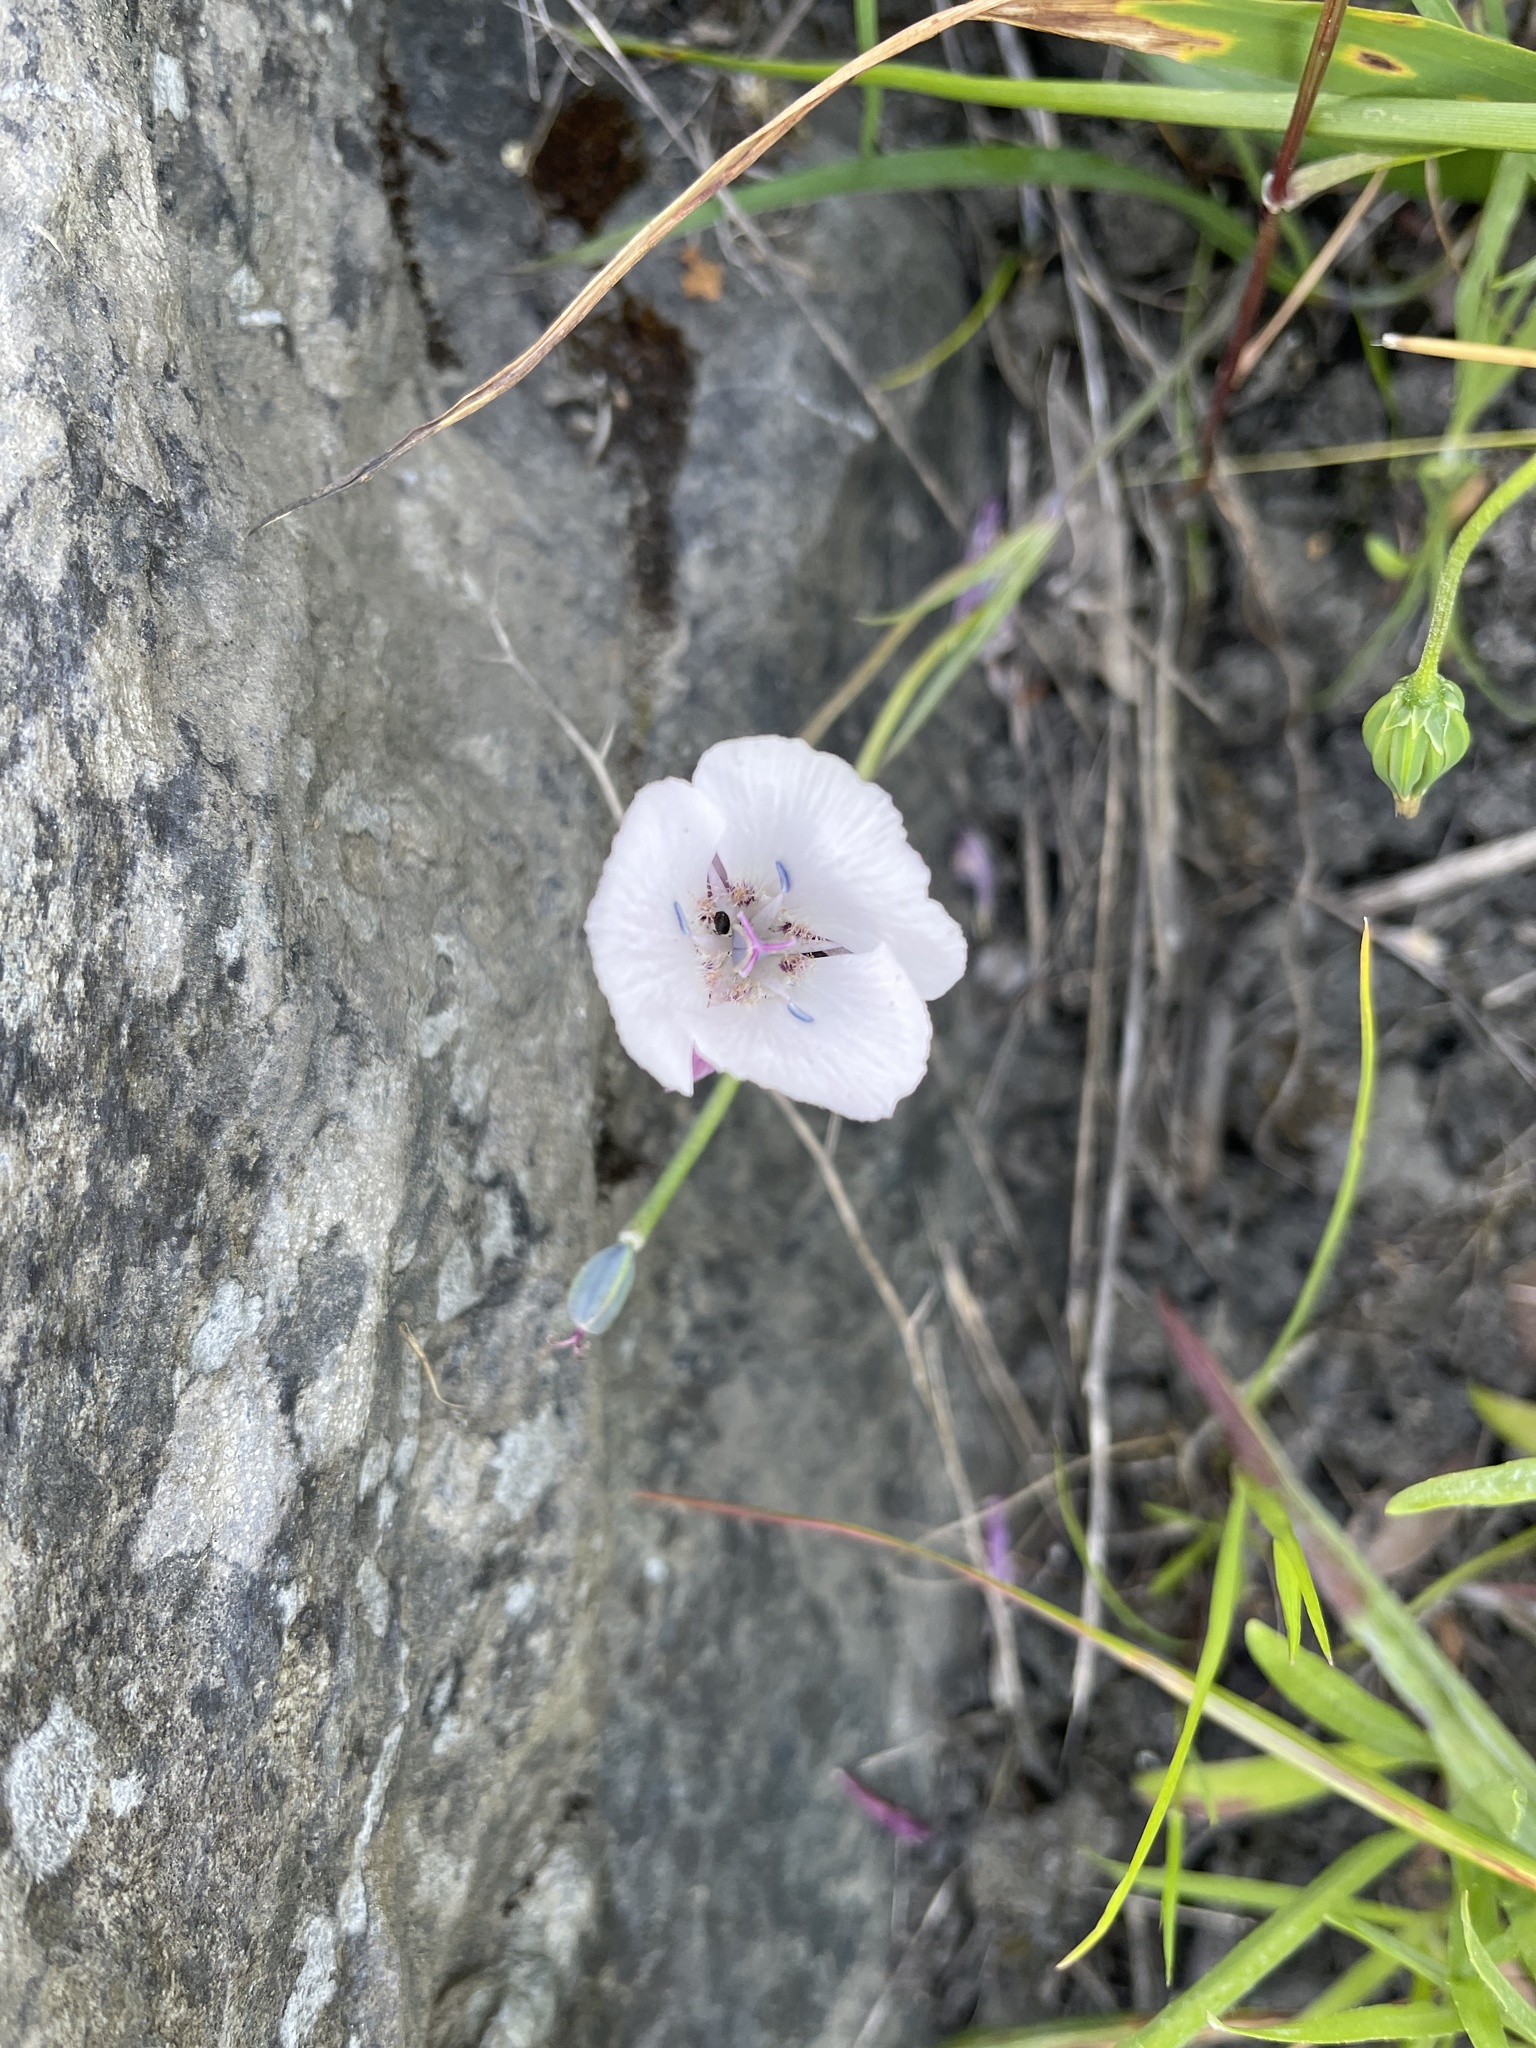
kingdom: Plantae
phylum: Tracheophyta
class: Liliopsida
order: Liliales
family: Liliaceae
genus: Calochortus
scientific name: Calochortus umbellatus
